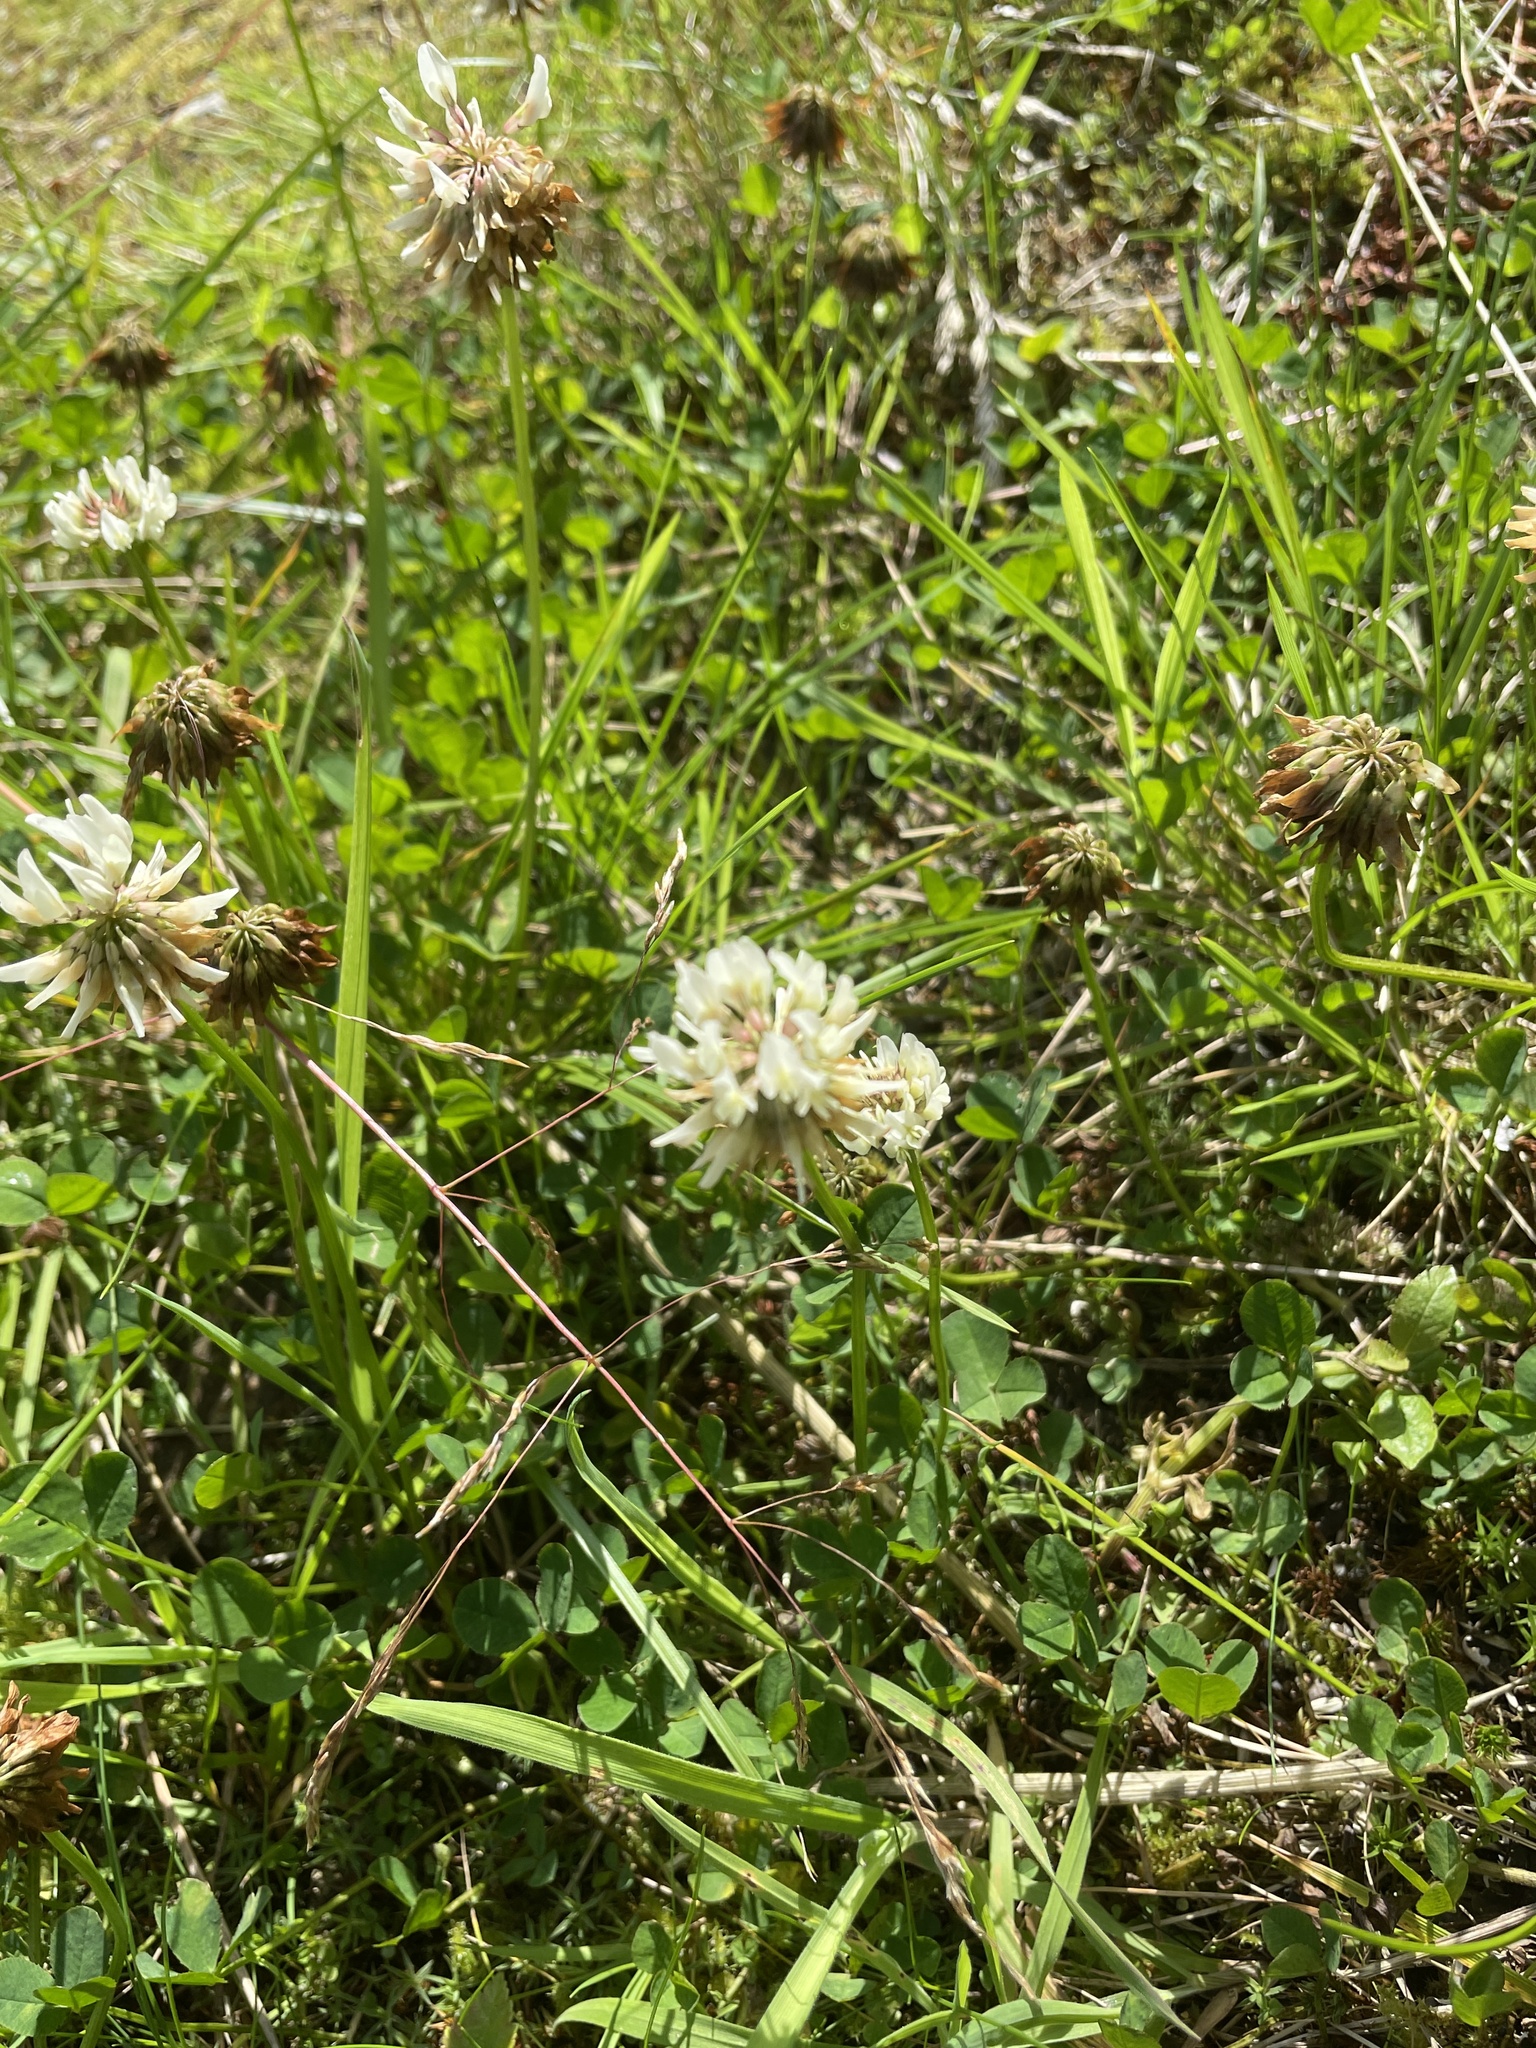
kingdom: Plantae
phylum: Tracheophyta
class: Magnoliopsida
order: Fabales
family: Fabaceae
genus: Trifolium
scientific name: Trifolium repens
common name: White clover
